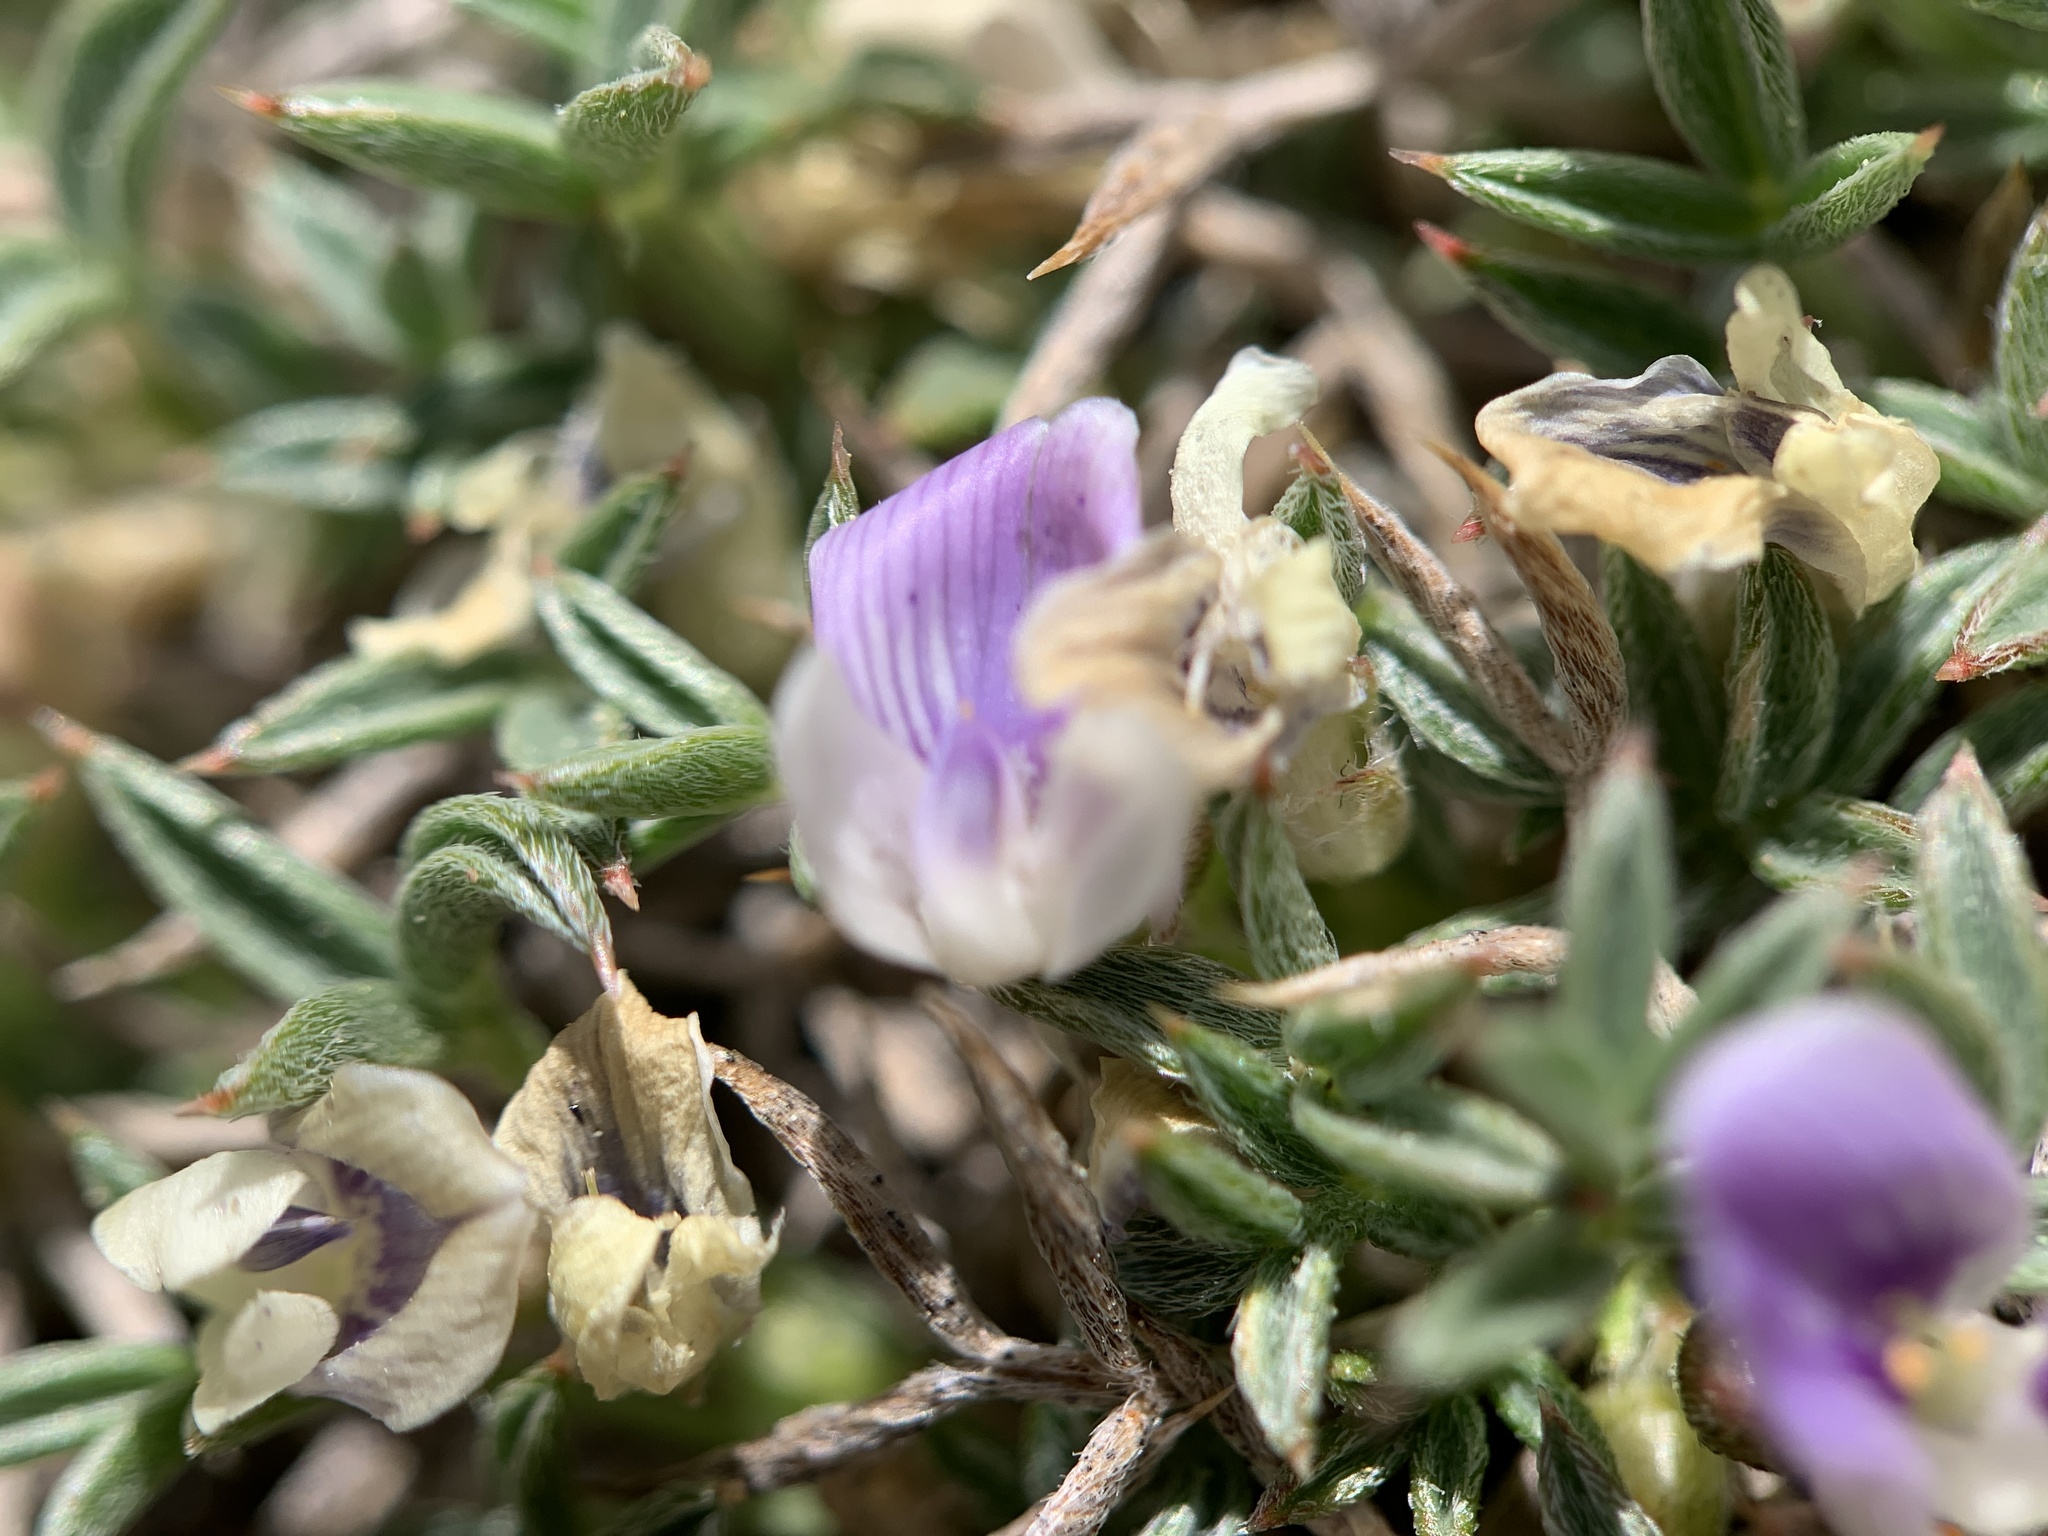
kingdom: Plantae
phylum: Tracheophyta
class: Magnoliopsida
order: Fabales
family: Fabaceae
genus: Astragalus
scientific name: Astragalus kentrophyta
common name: Prickly milk-vetch
